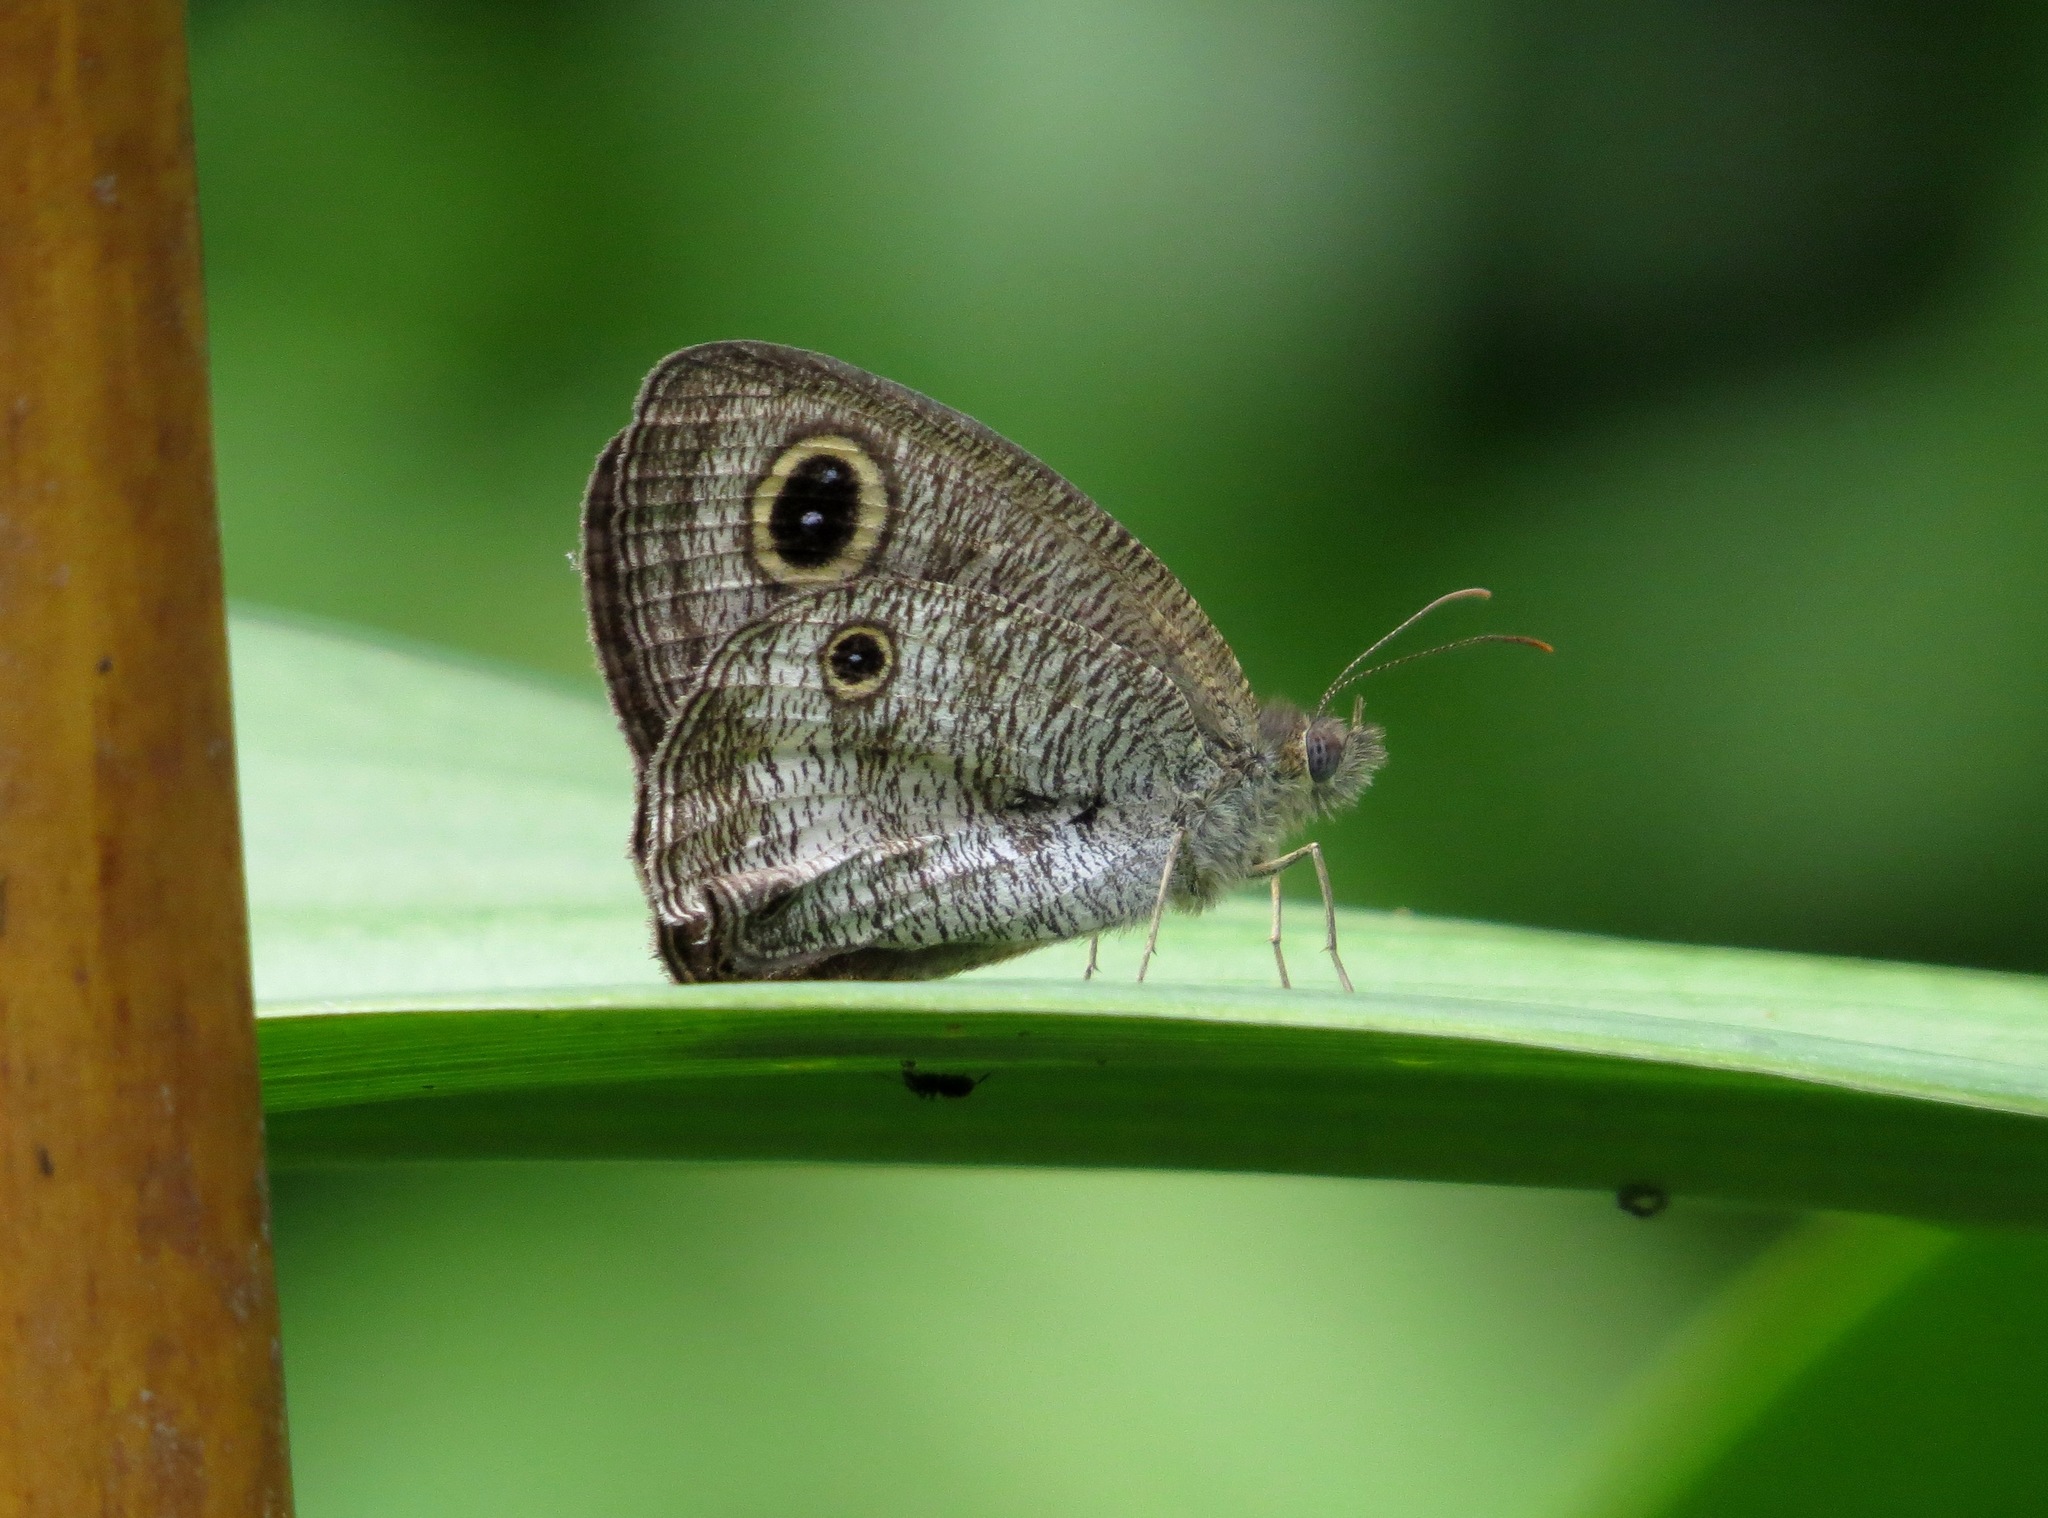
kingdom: Animalia
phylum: Arthropoda
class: Insecta
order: Lepidoptera
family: Nymphalidae
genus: Ypthima
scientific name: Ypthima pandocus
